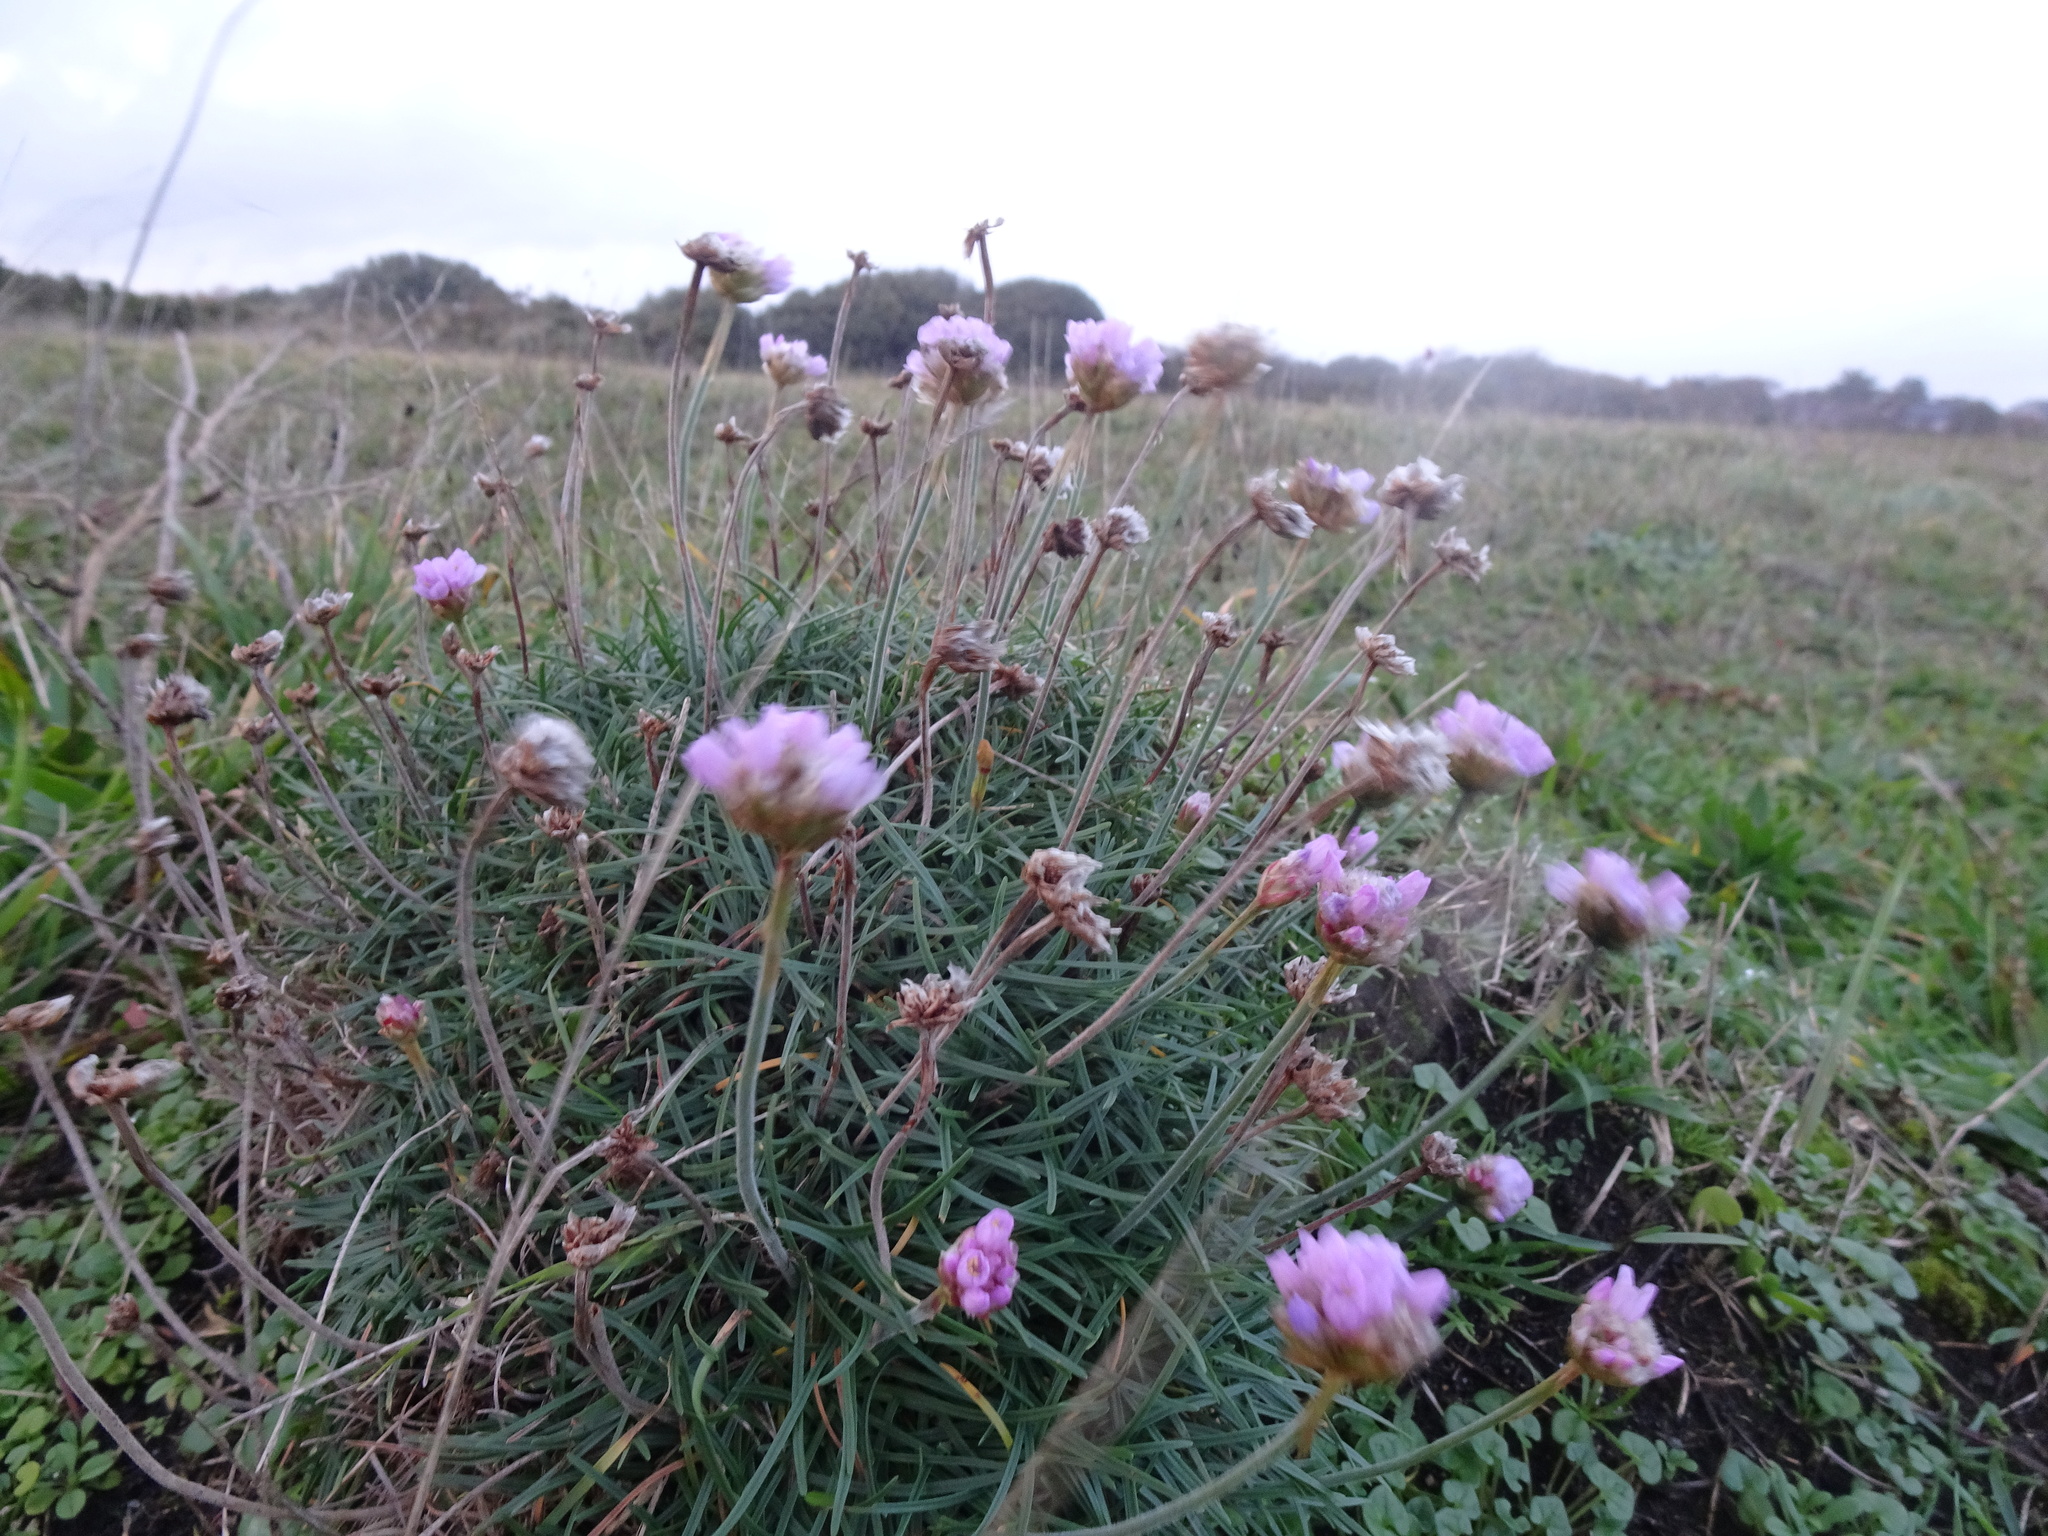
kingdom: Plantae
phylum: Tracheophyta
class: Magnoliopsida
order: Caryophyllales
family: Plumbaginaceae
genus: Armeria
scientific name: Armeria maritima
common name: Thrift
